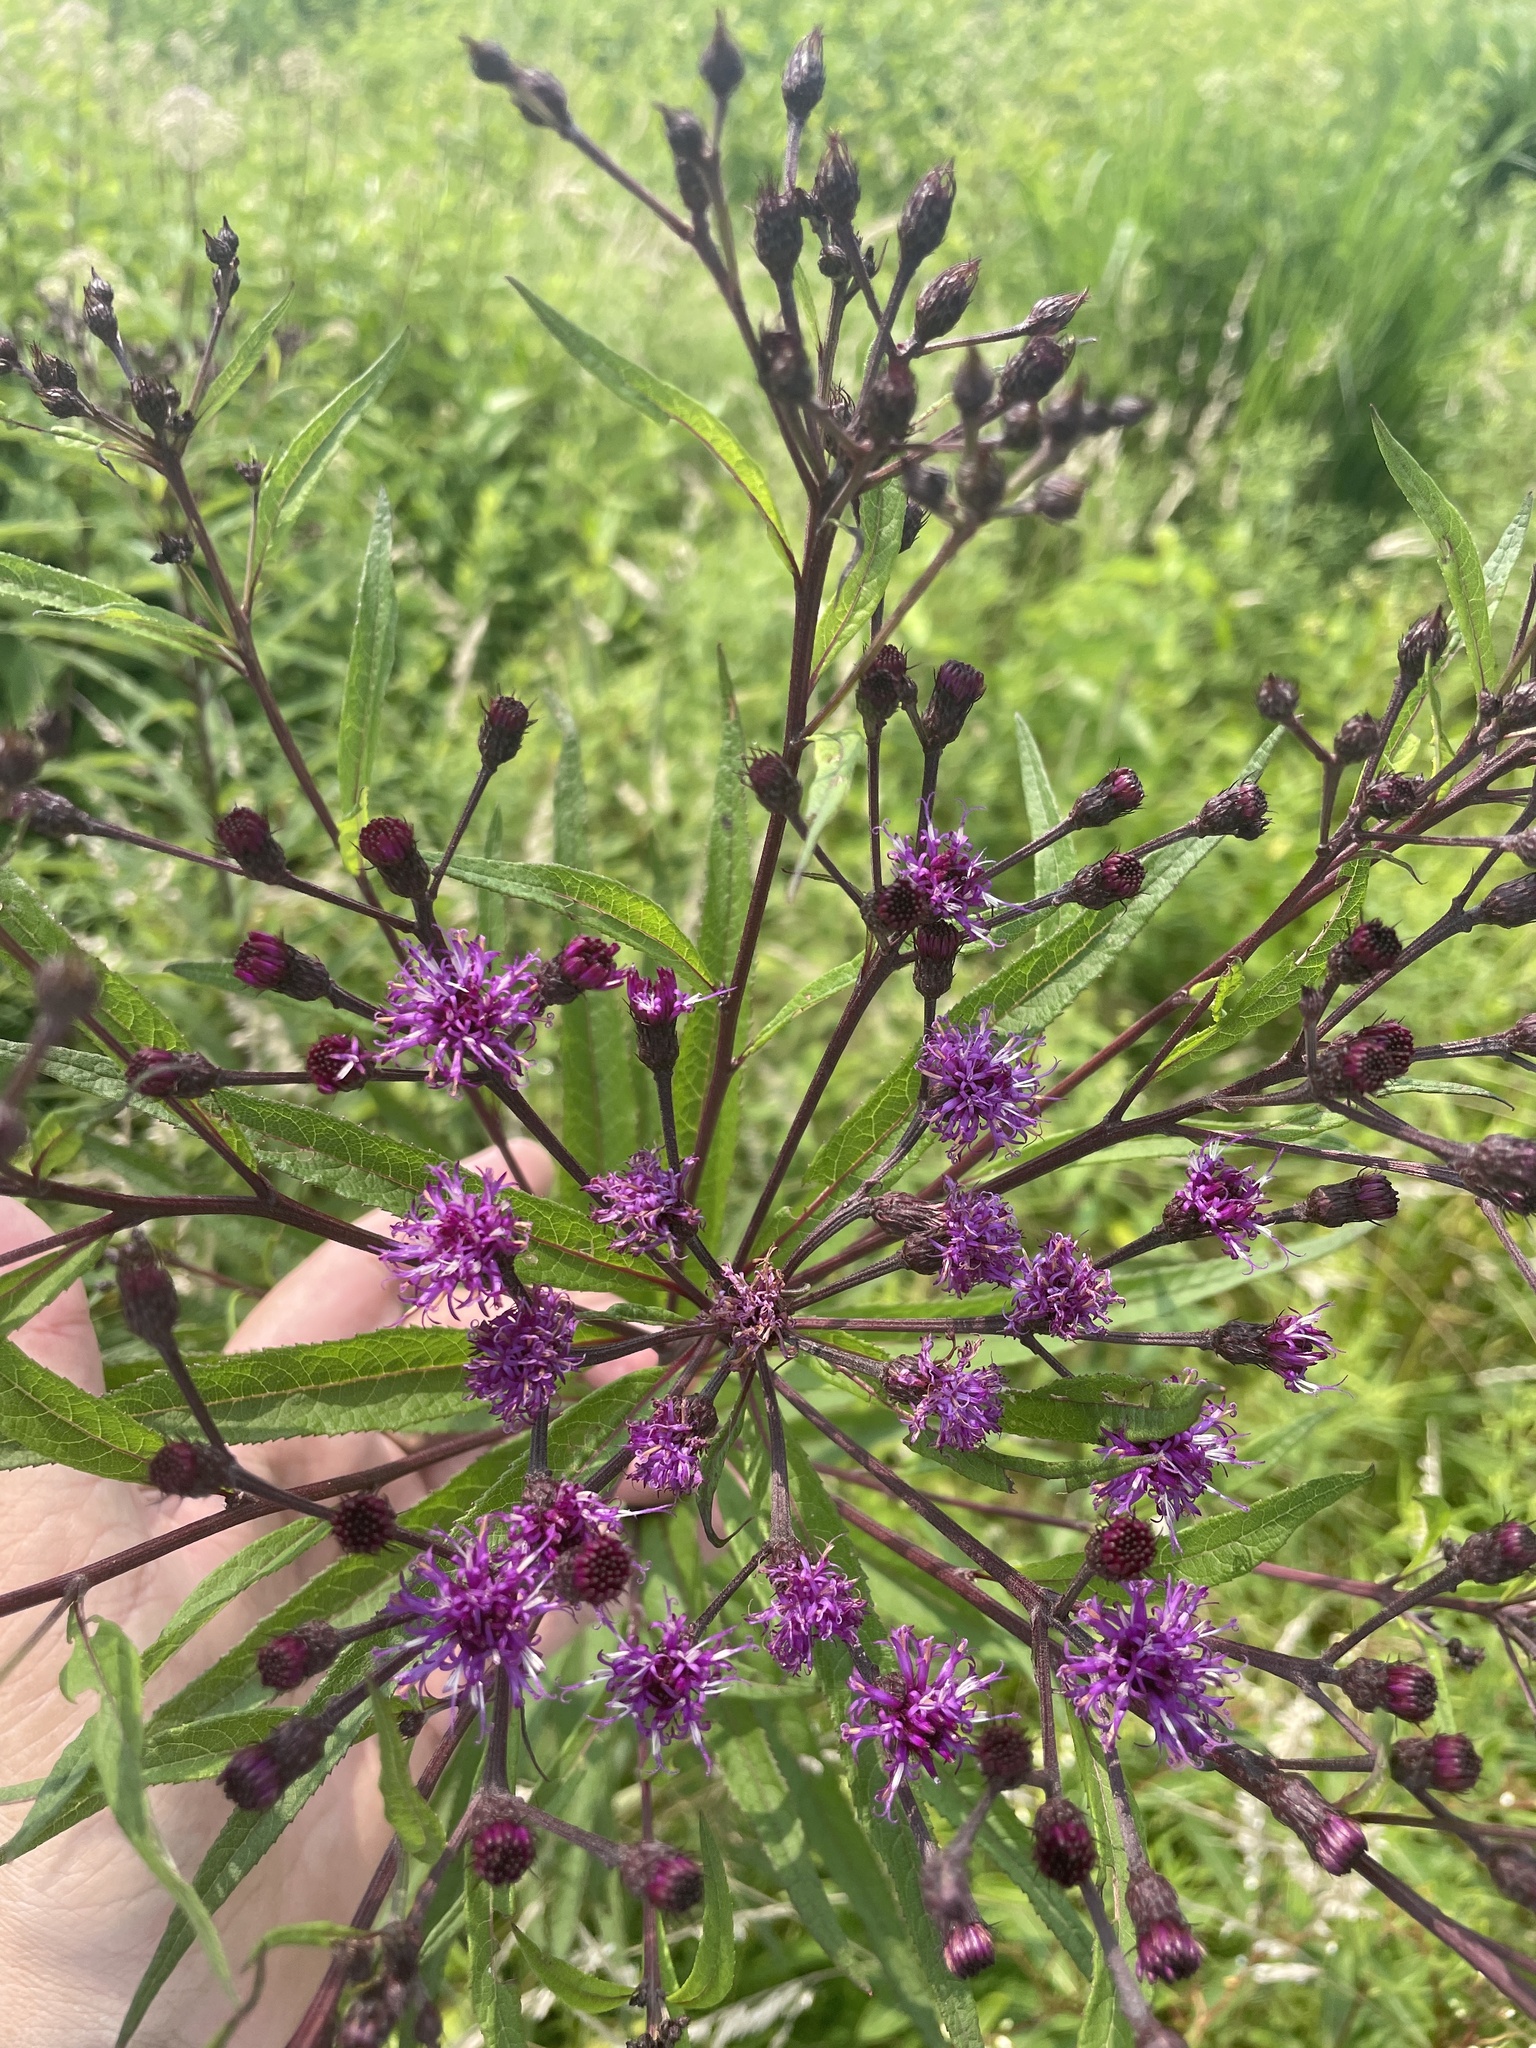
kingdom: Plantae
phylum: Tracheophyta
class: Magnoliopsida
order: Asterales
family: Asteraceae
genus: Vernonia
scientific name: Vernonia noveboracensis
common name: New york ironweed
